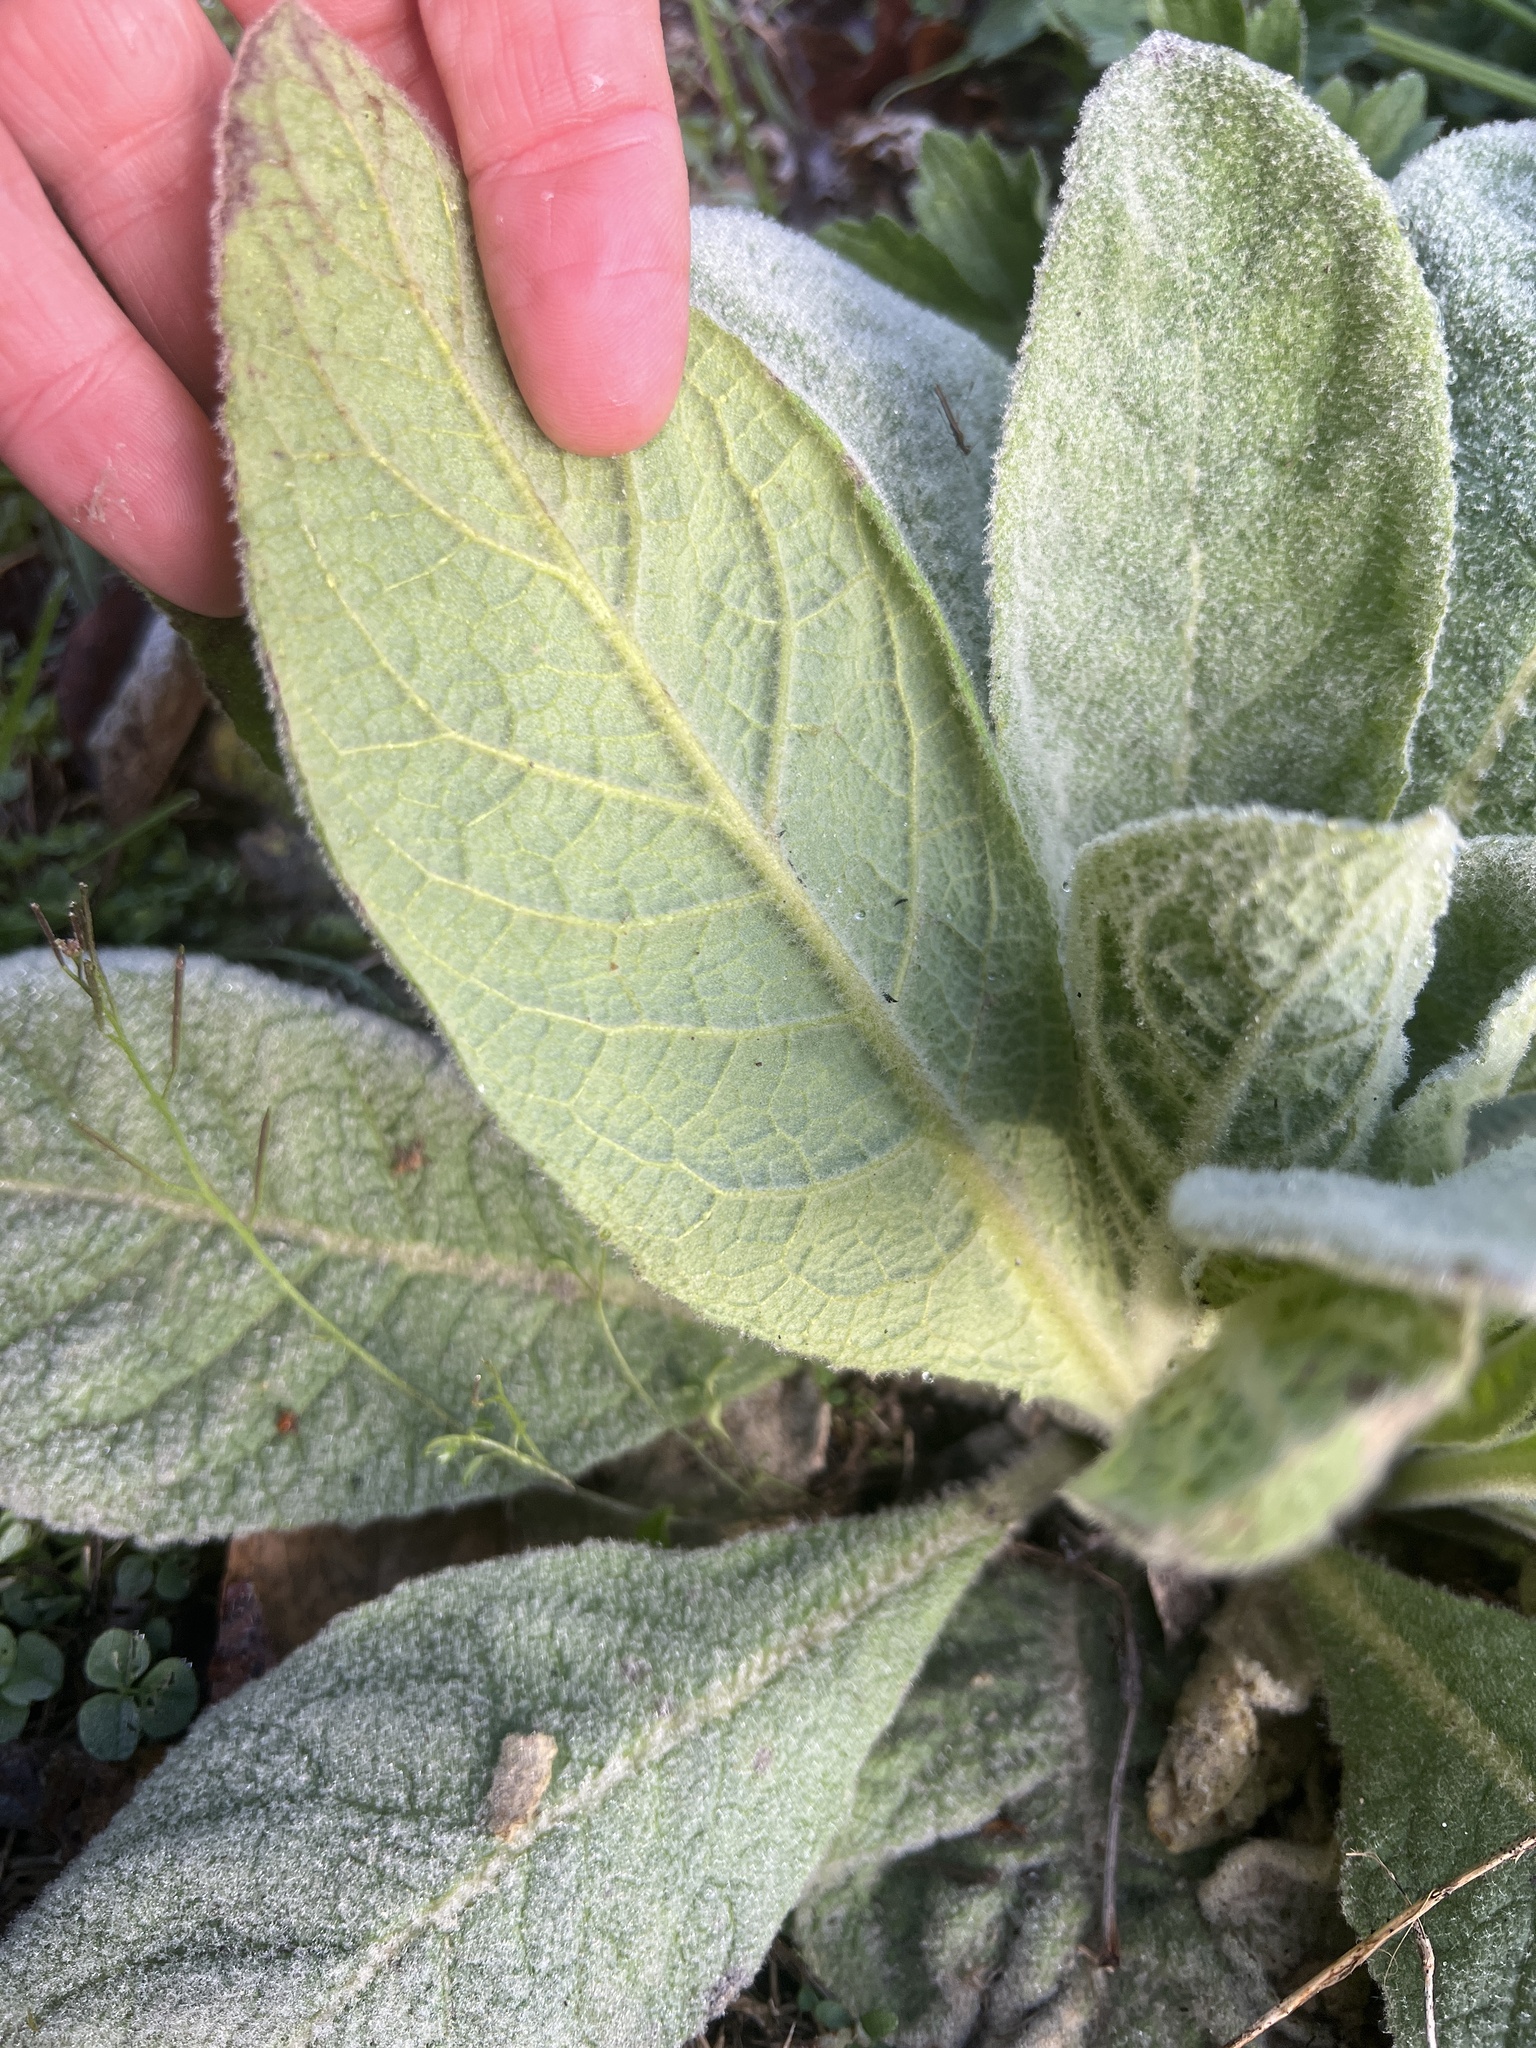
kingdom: Plantae
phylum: Tracheophyta
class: Magnoliopsida
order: Lamiales
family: Scrophulariaceae
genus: Verbascum
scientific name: Verbascum thapsus
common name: Common mullein
